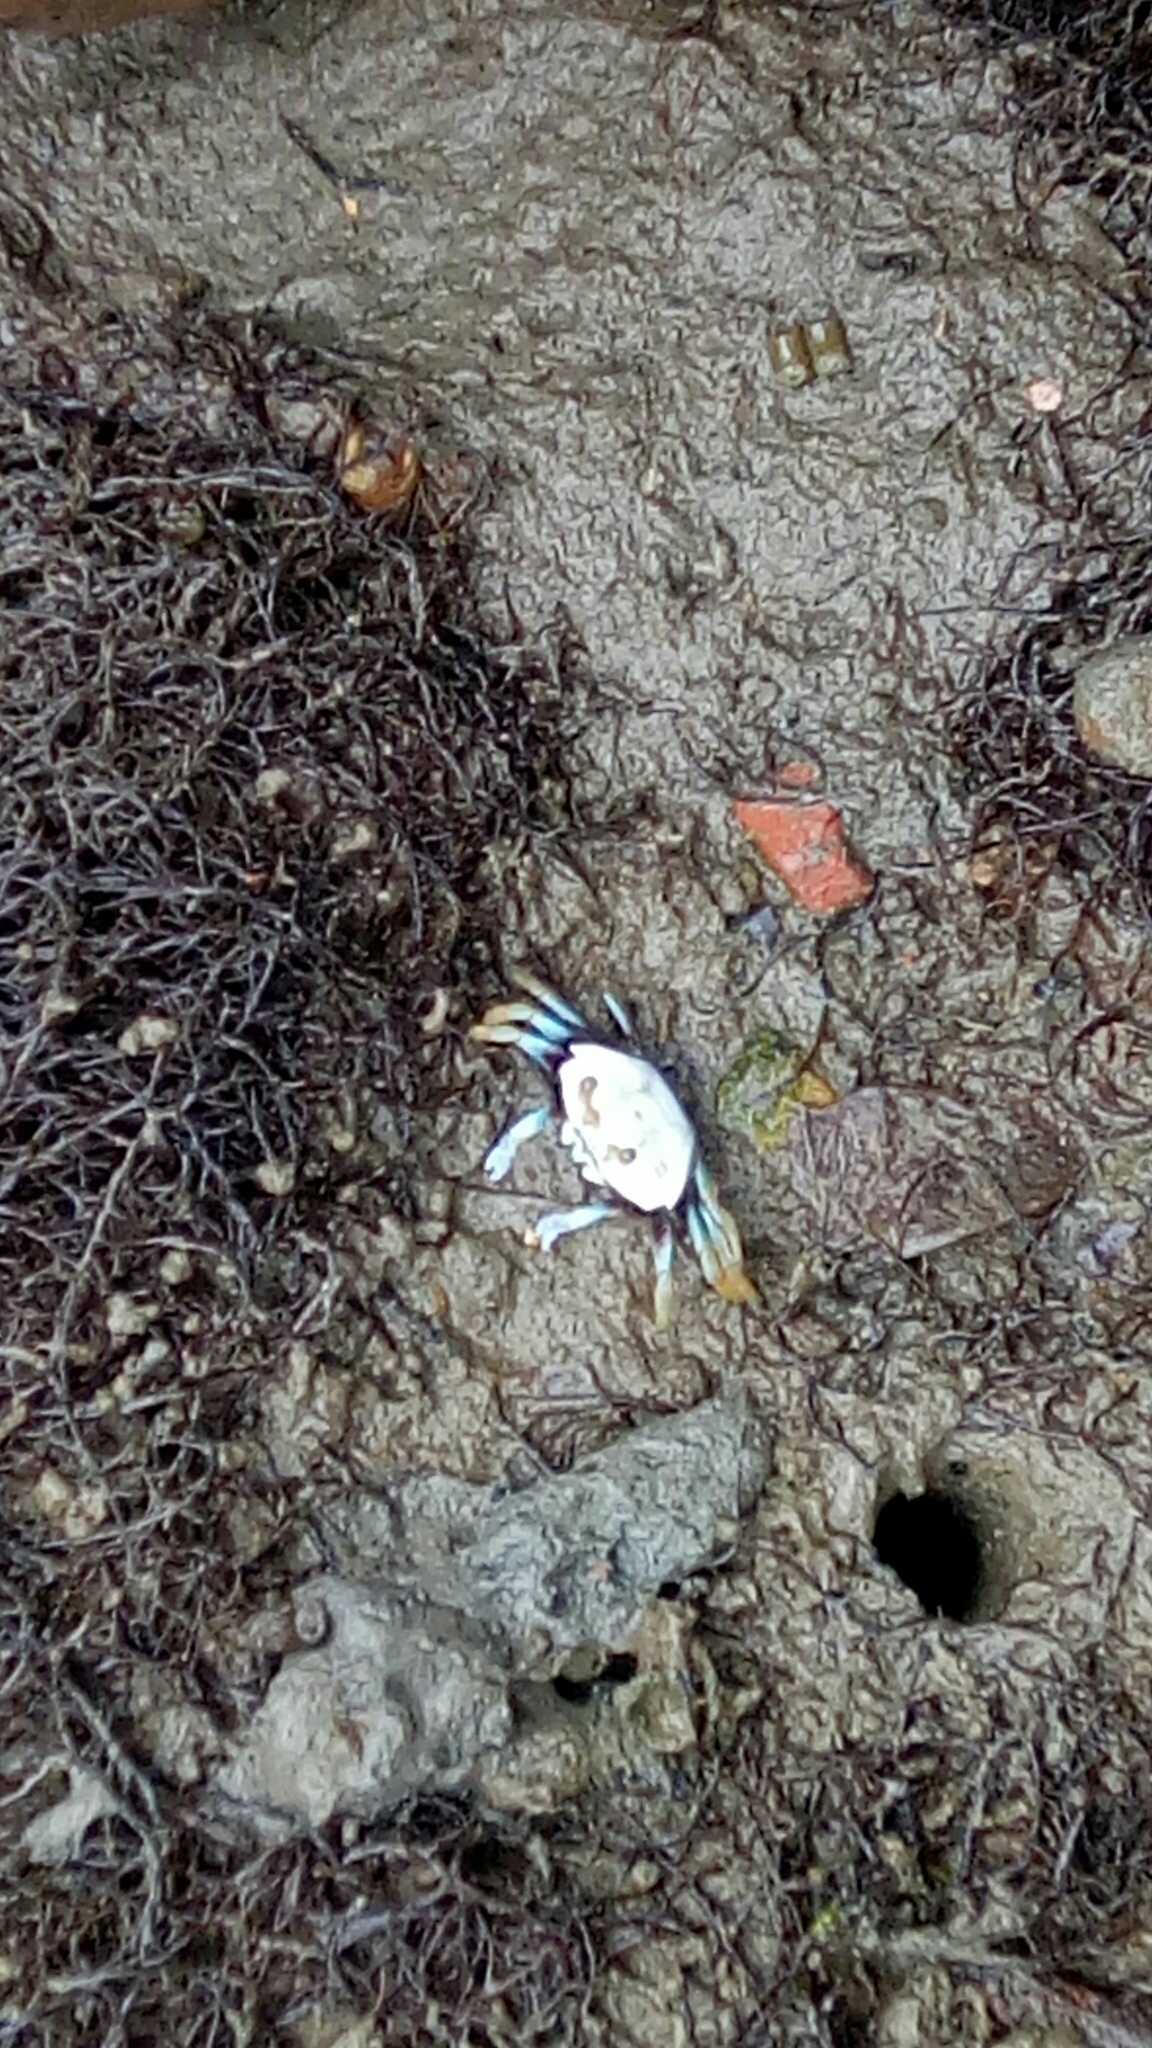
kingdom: Animalia
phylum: Arthropoda
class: Malacostraca
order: Decapoda
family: Ocypodidae
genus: Tubuca
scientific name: Tubuca arcuata
